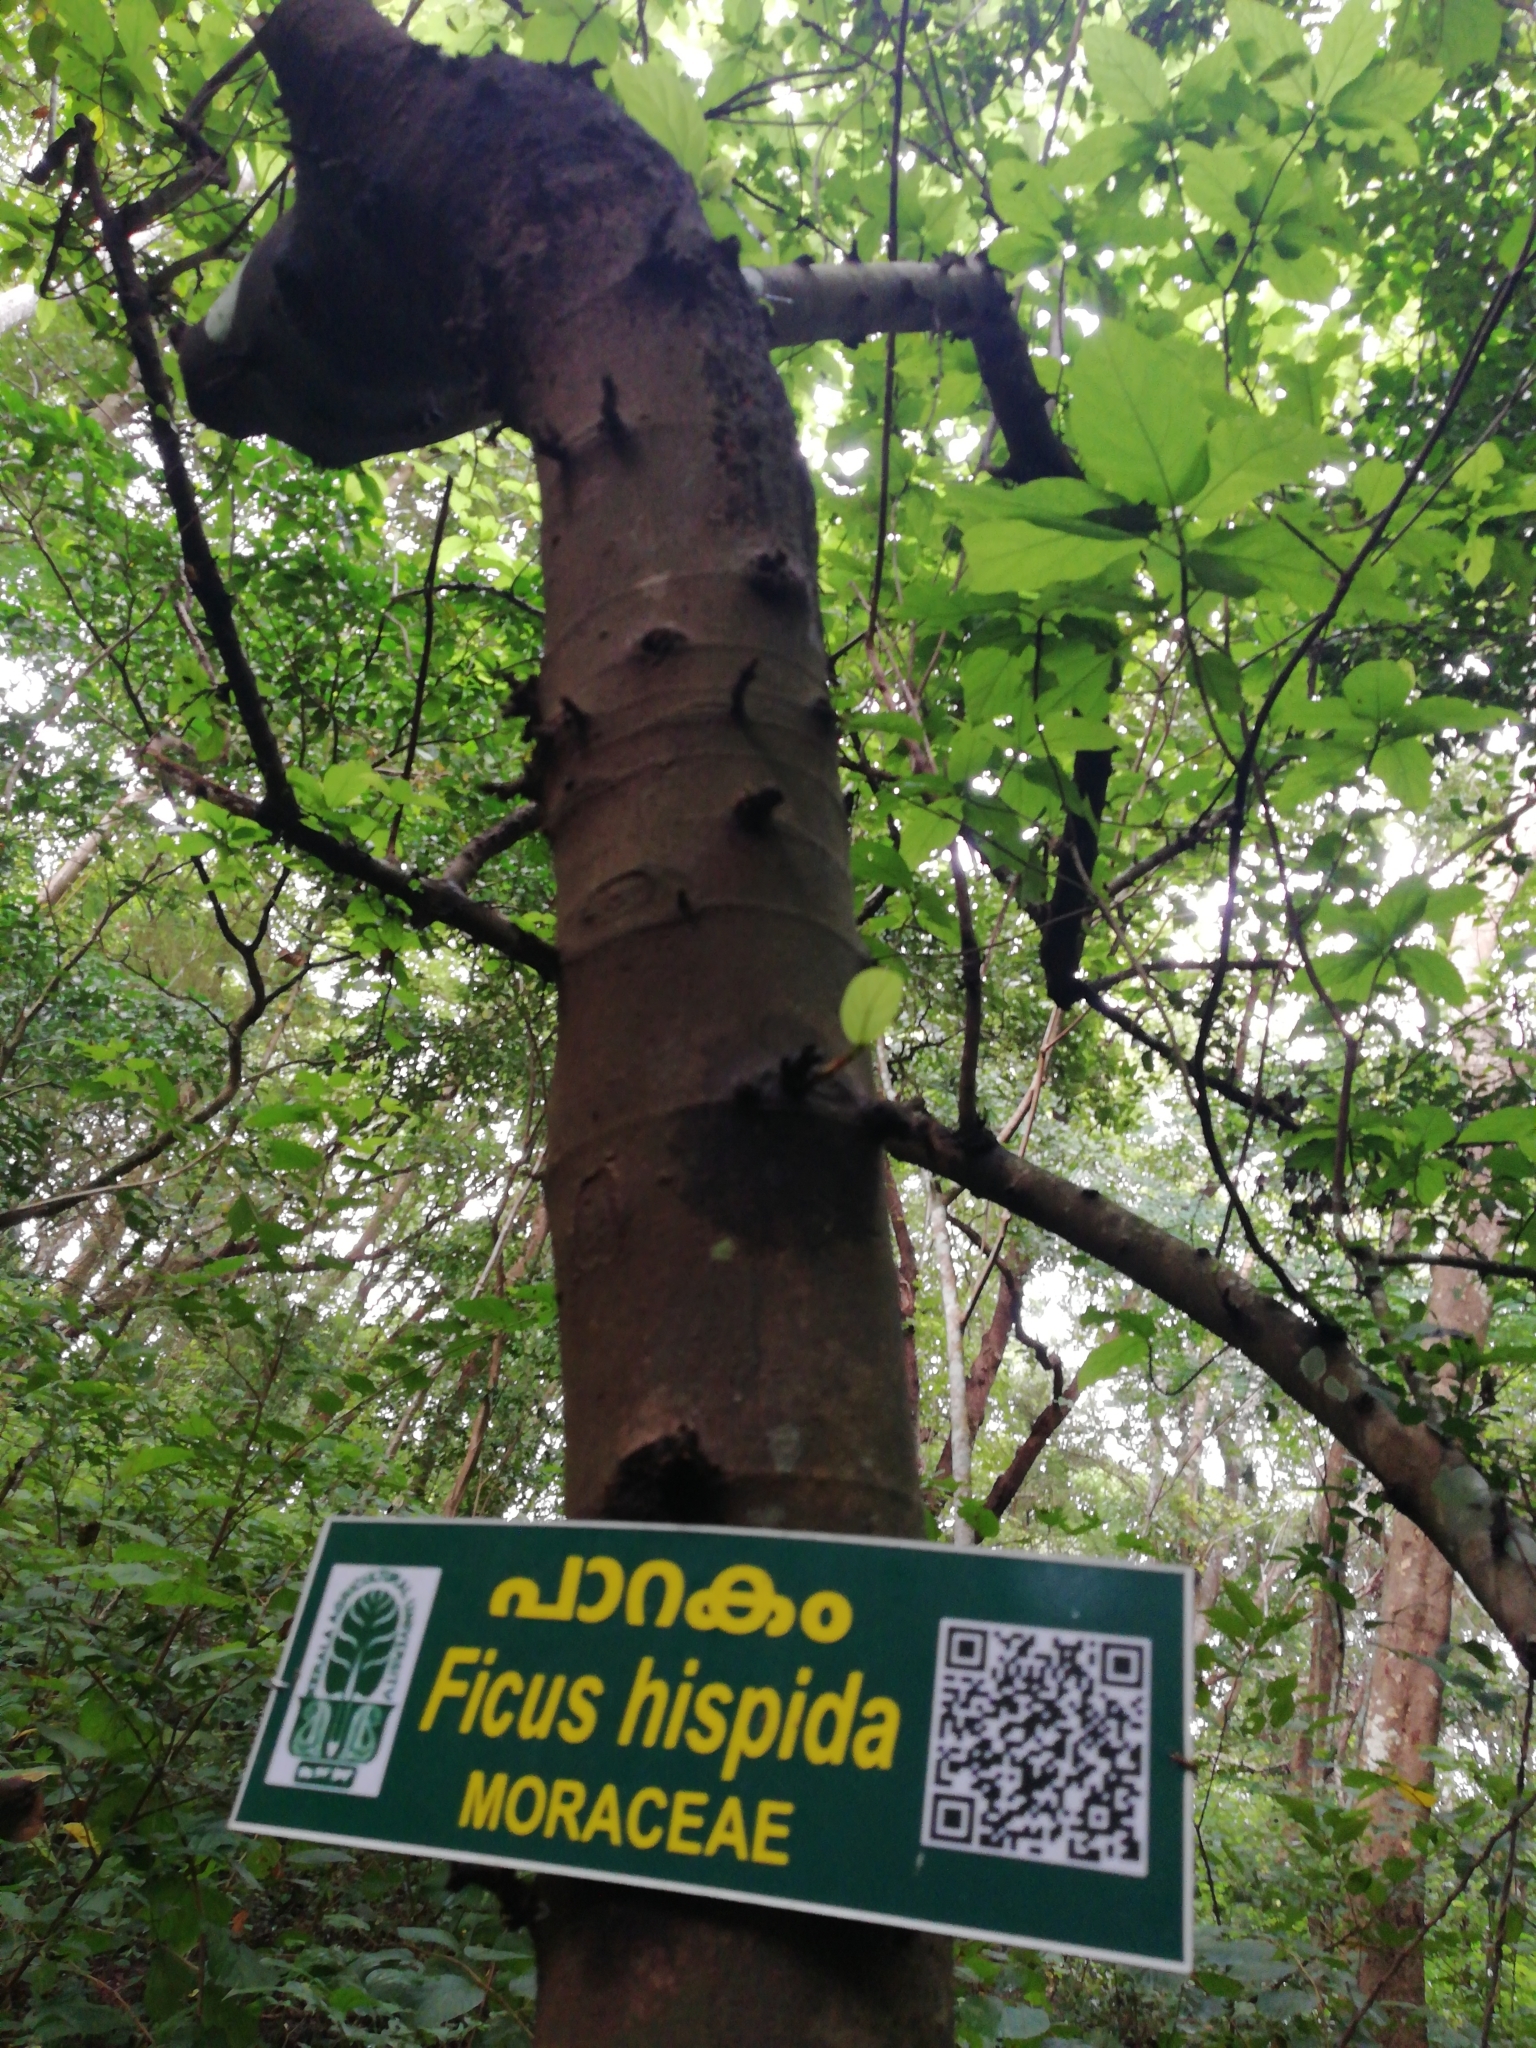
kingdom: Plantae
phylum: Tracheophyta
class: Magnoliopsida
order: Rosales
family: Moraceae
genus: Ficus
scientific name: Ficus hispida
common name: Hairy fig
